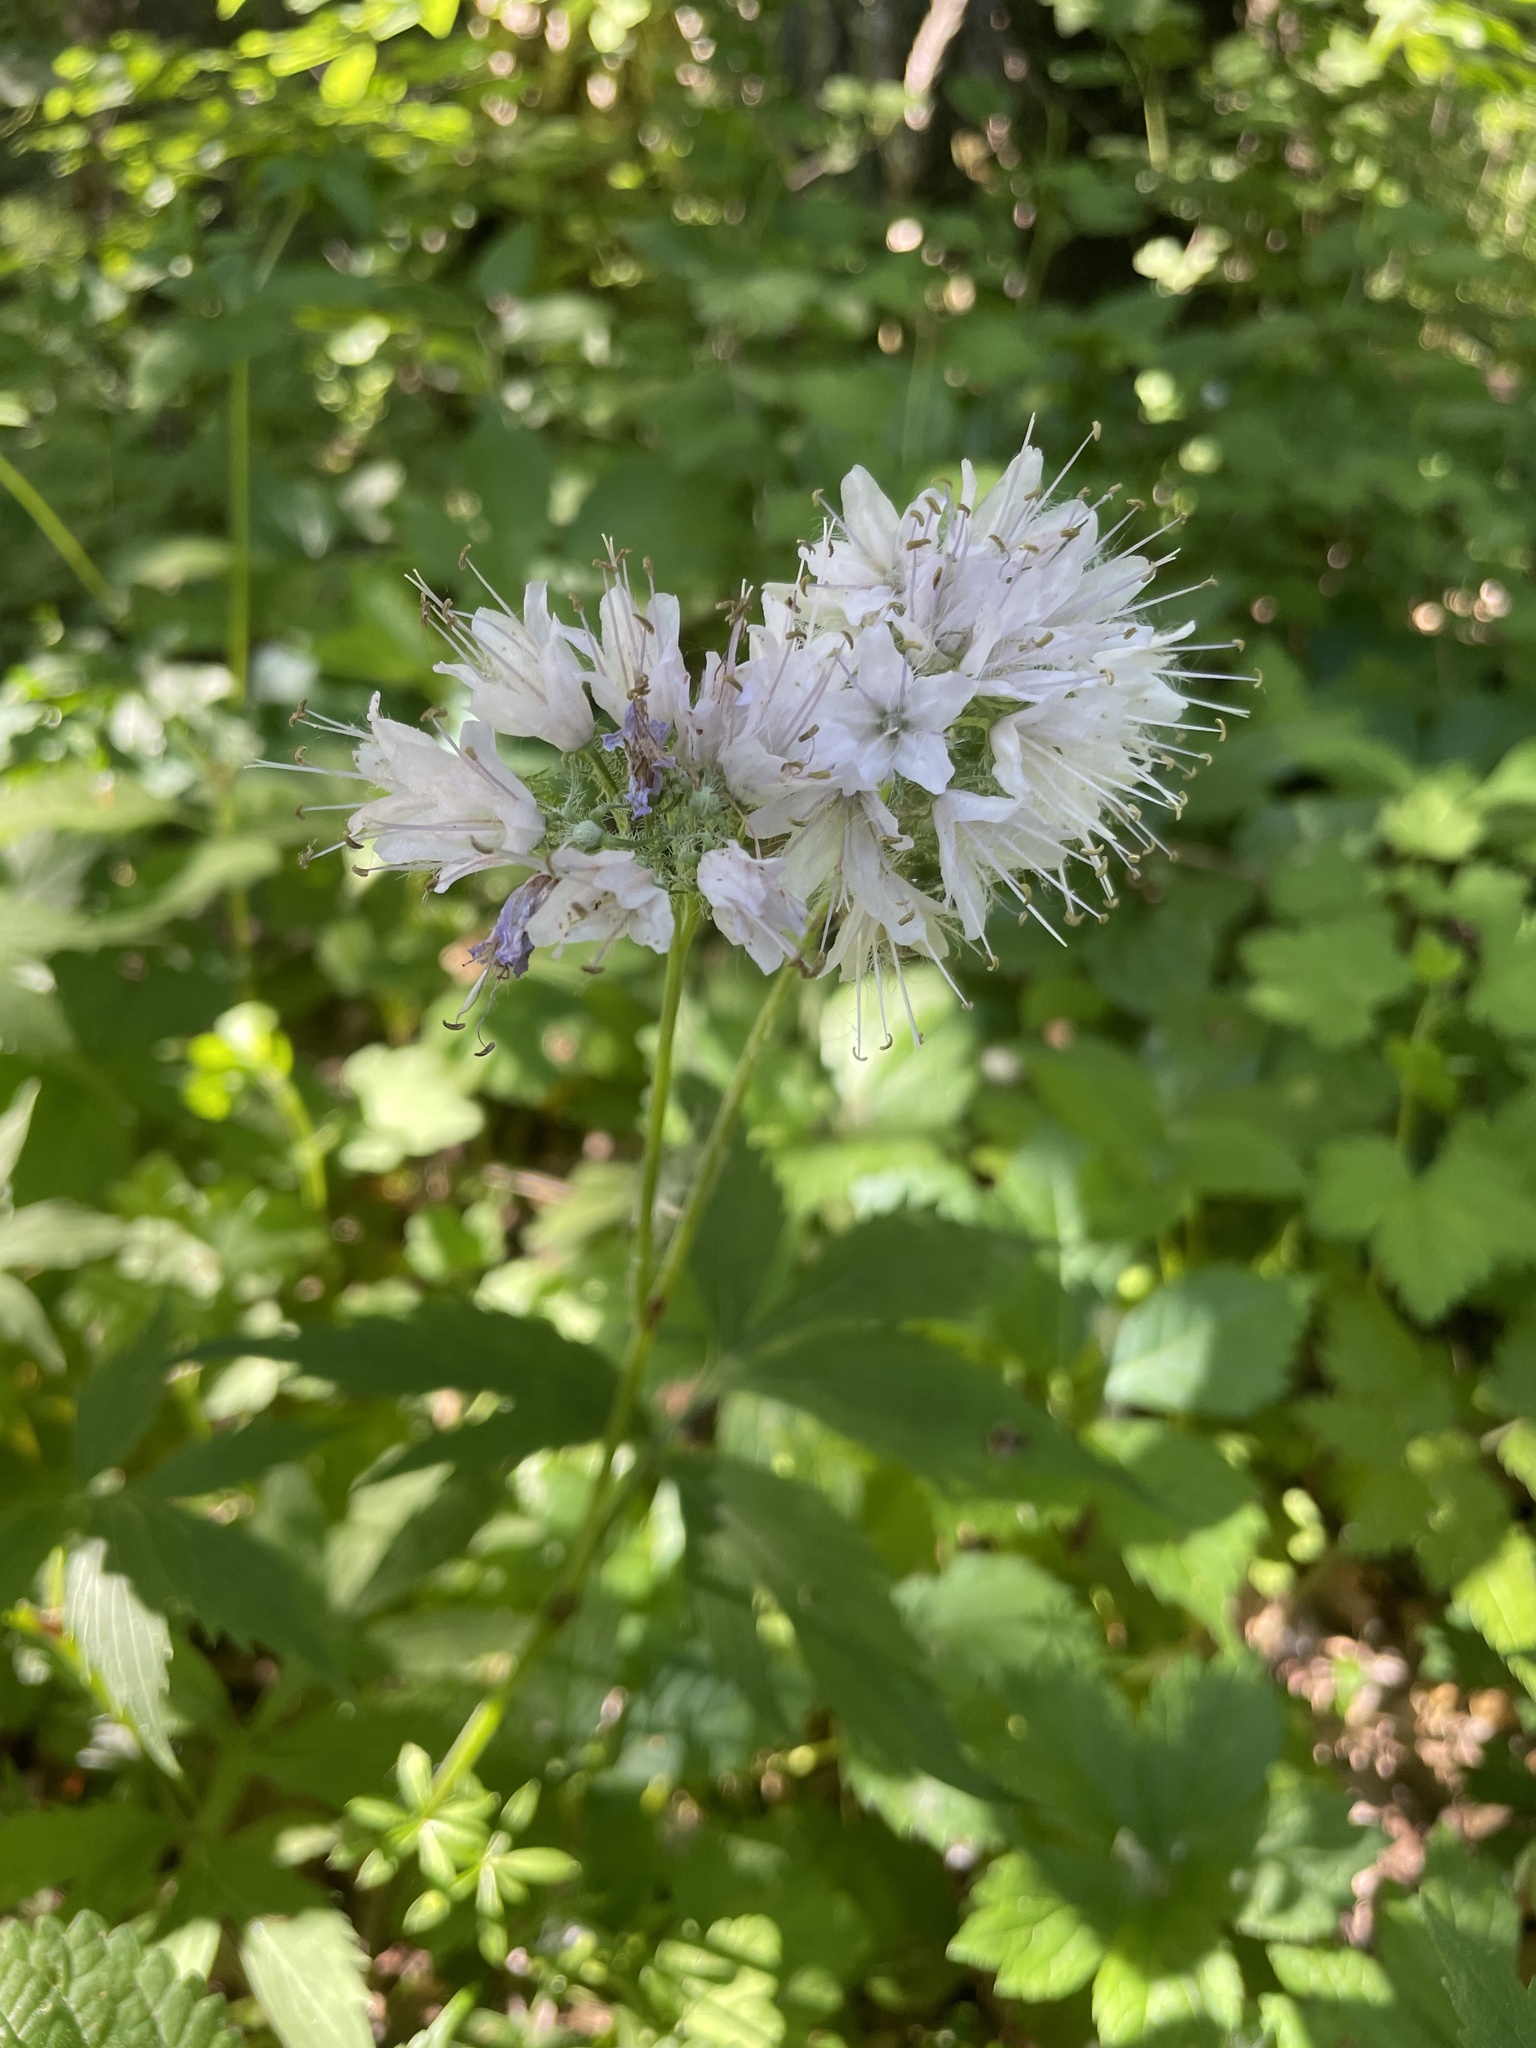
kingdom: Plantae
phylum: Tracheophyta
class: Magnoliopsida
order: Boraginales
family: Hydrophyllaceae
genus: Hydrophyllum
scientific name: Hydrophyllum virginianum
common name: Virginia waterleaf
